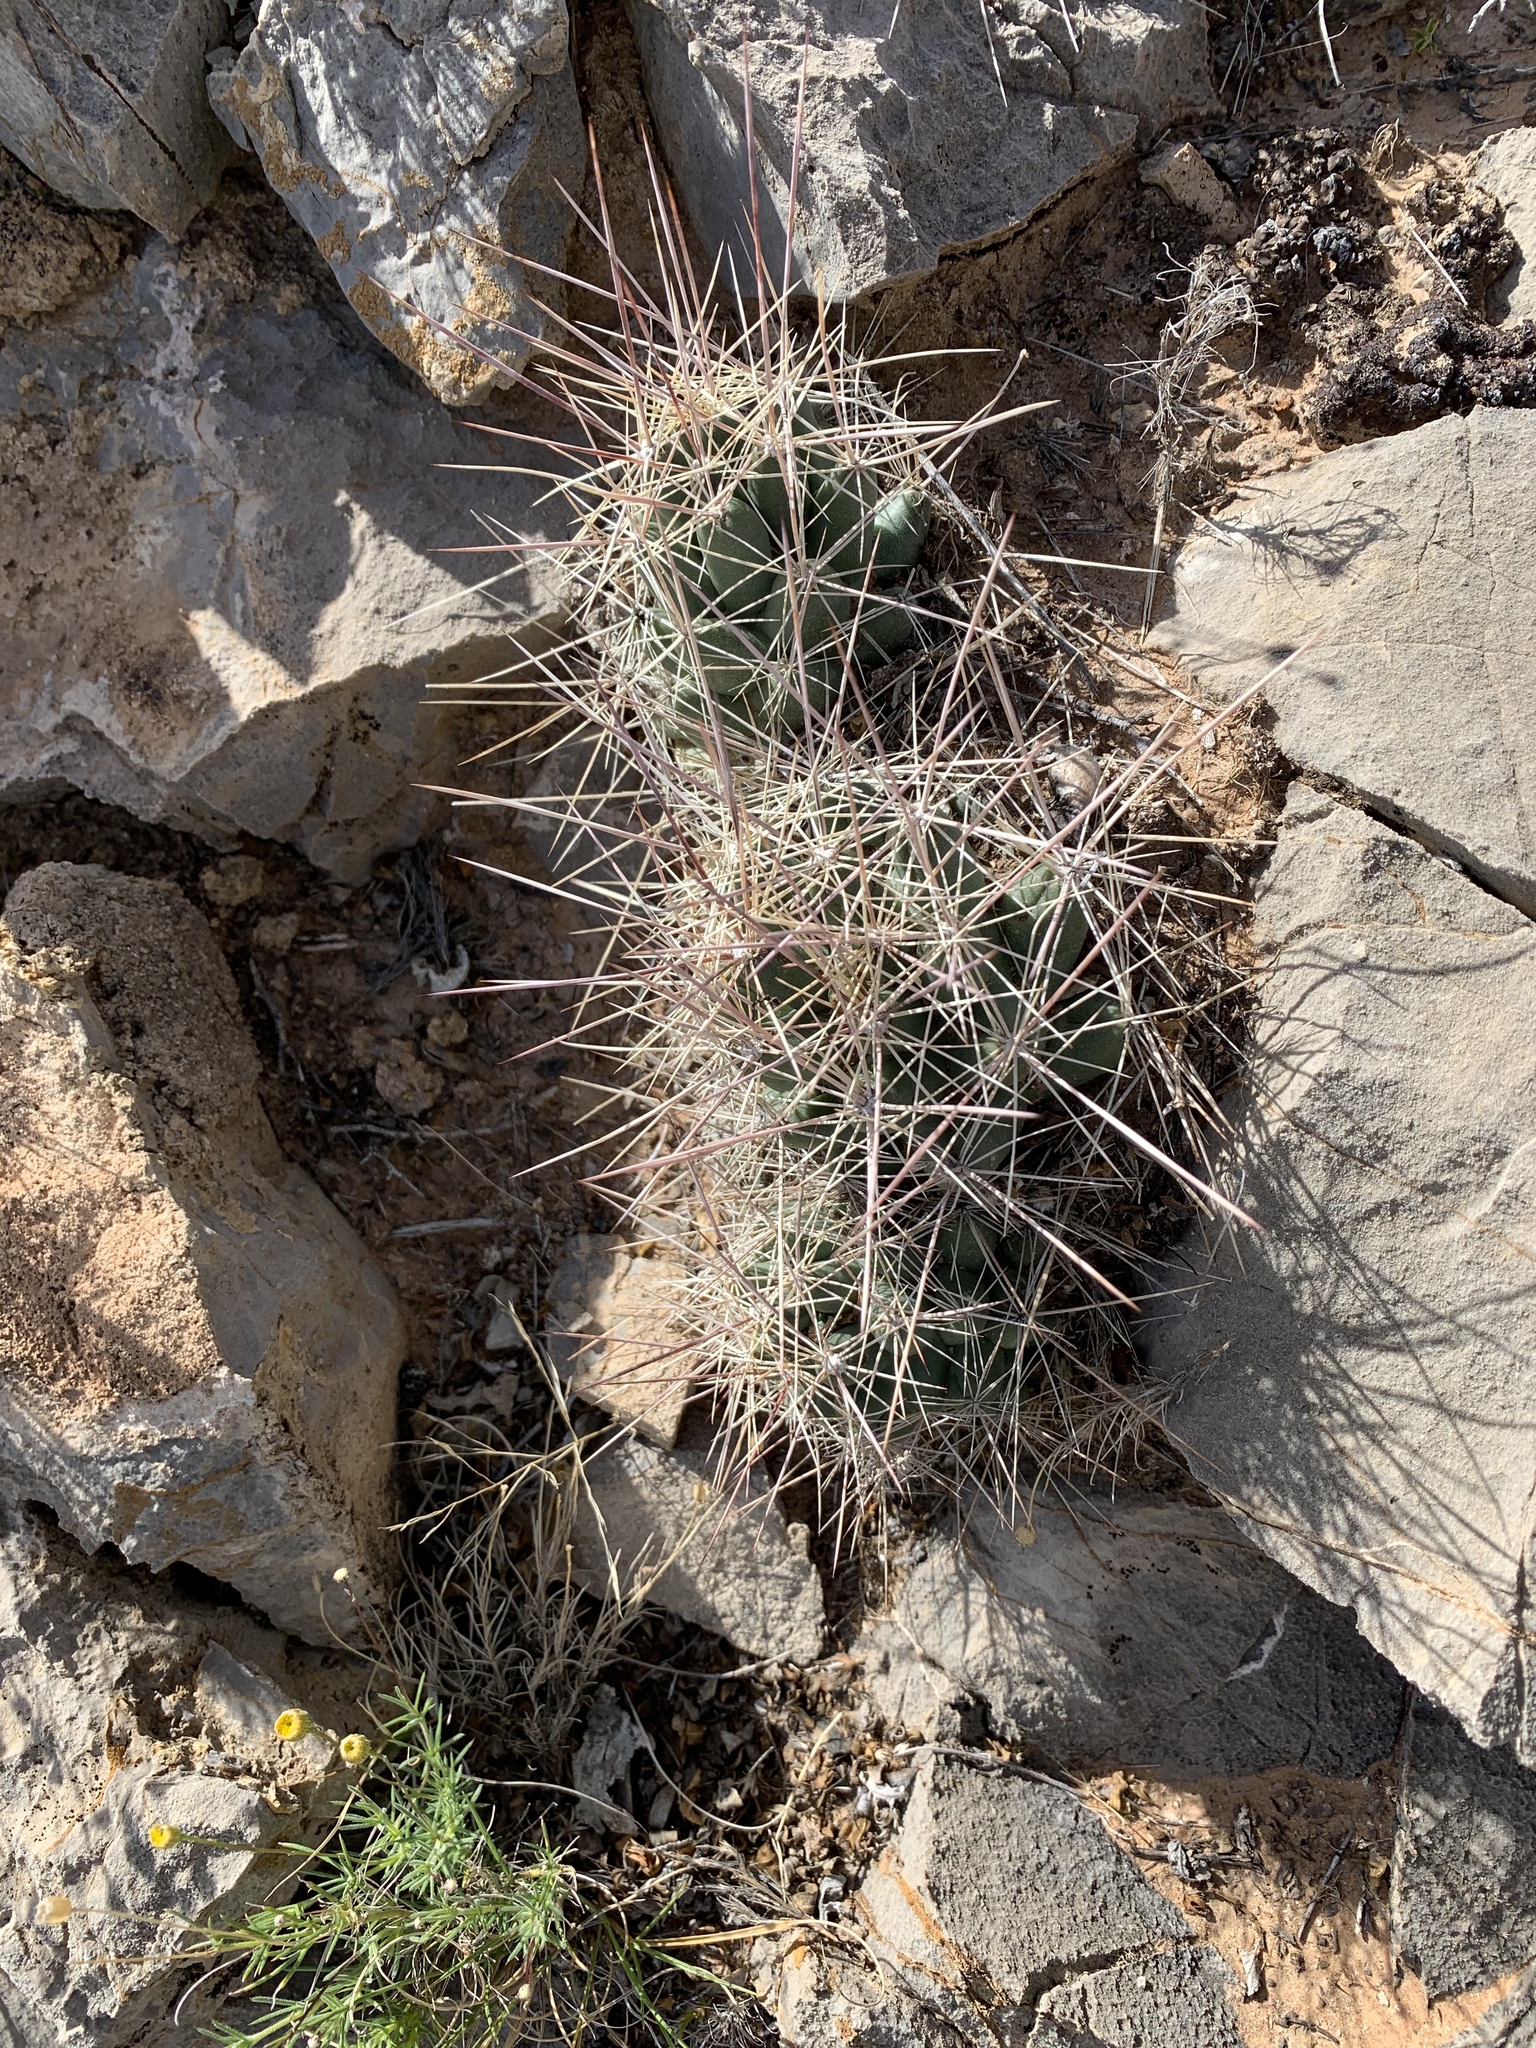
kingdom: Plantae
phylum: Tracheophyta
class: Magnoliopsida
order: Caryophyllales
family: Cactaceae
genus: Coryphantha
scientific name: Coryphantha macromeris
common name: Nipple beehive cactus
